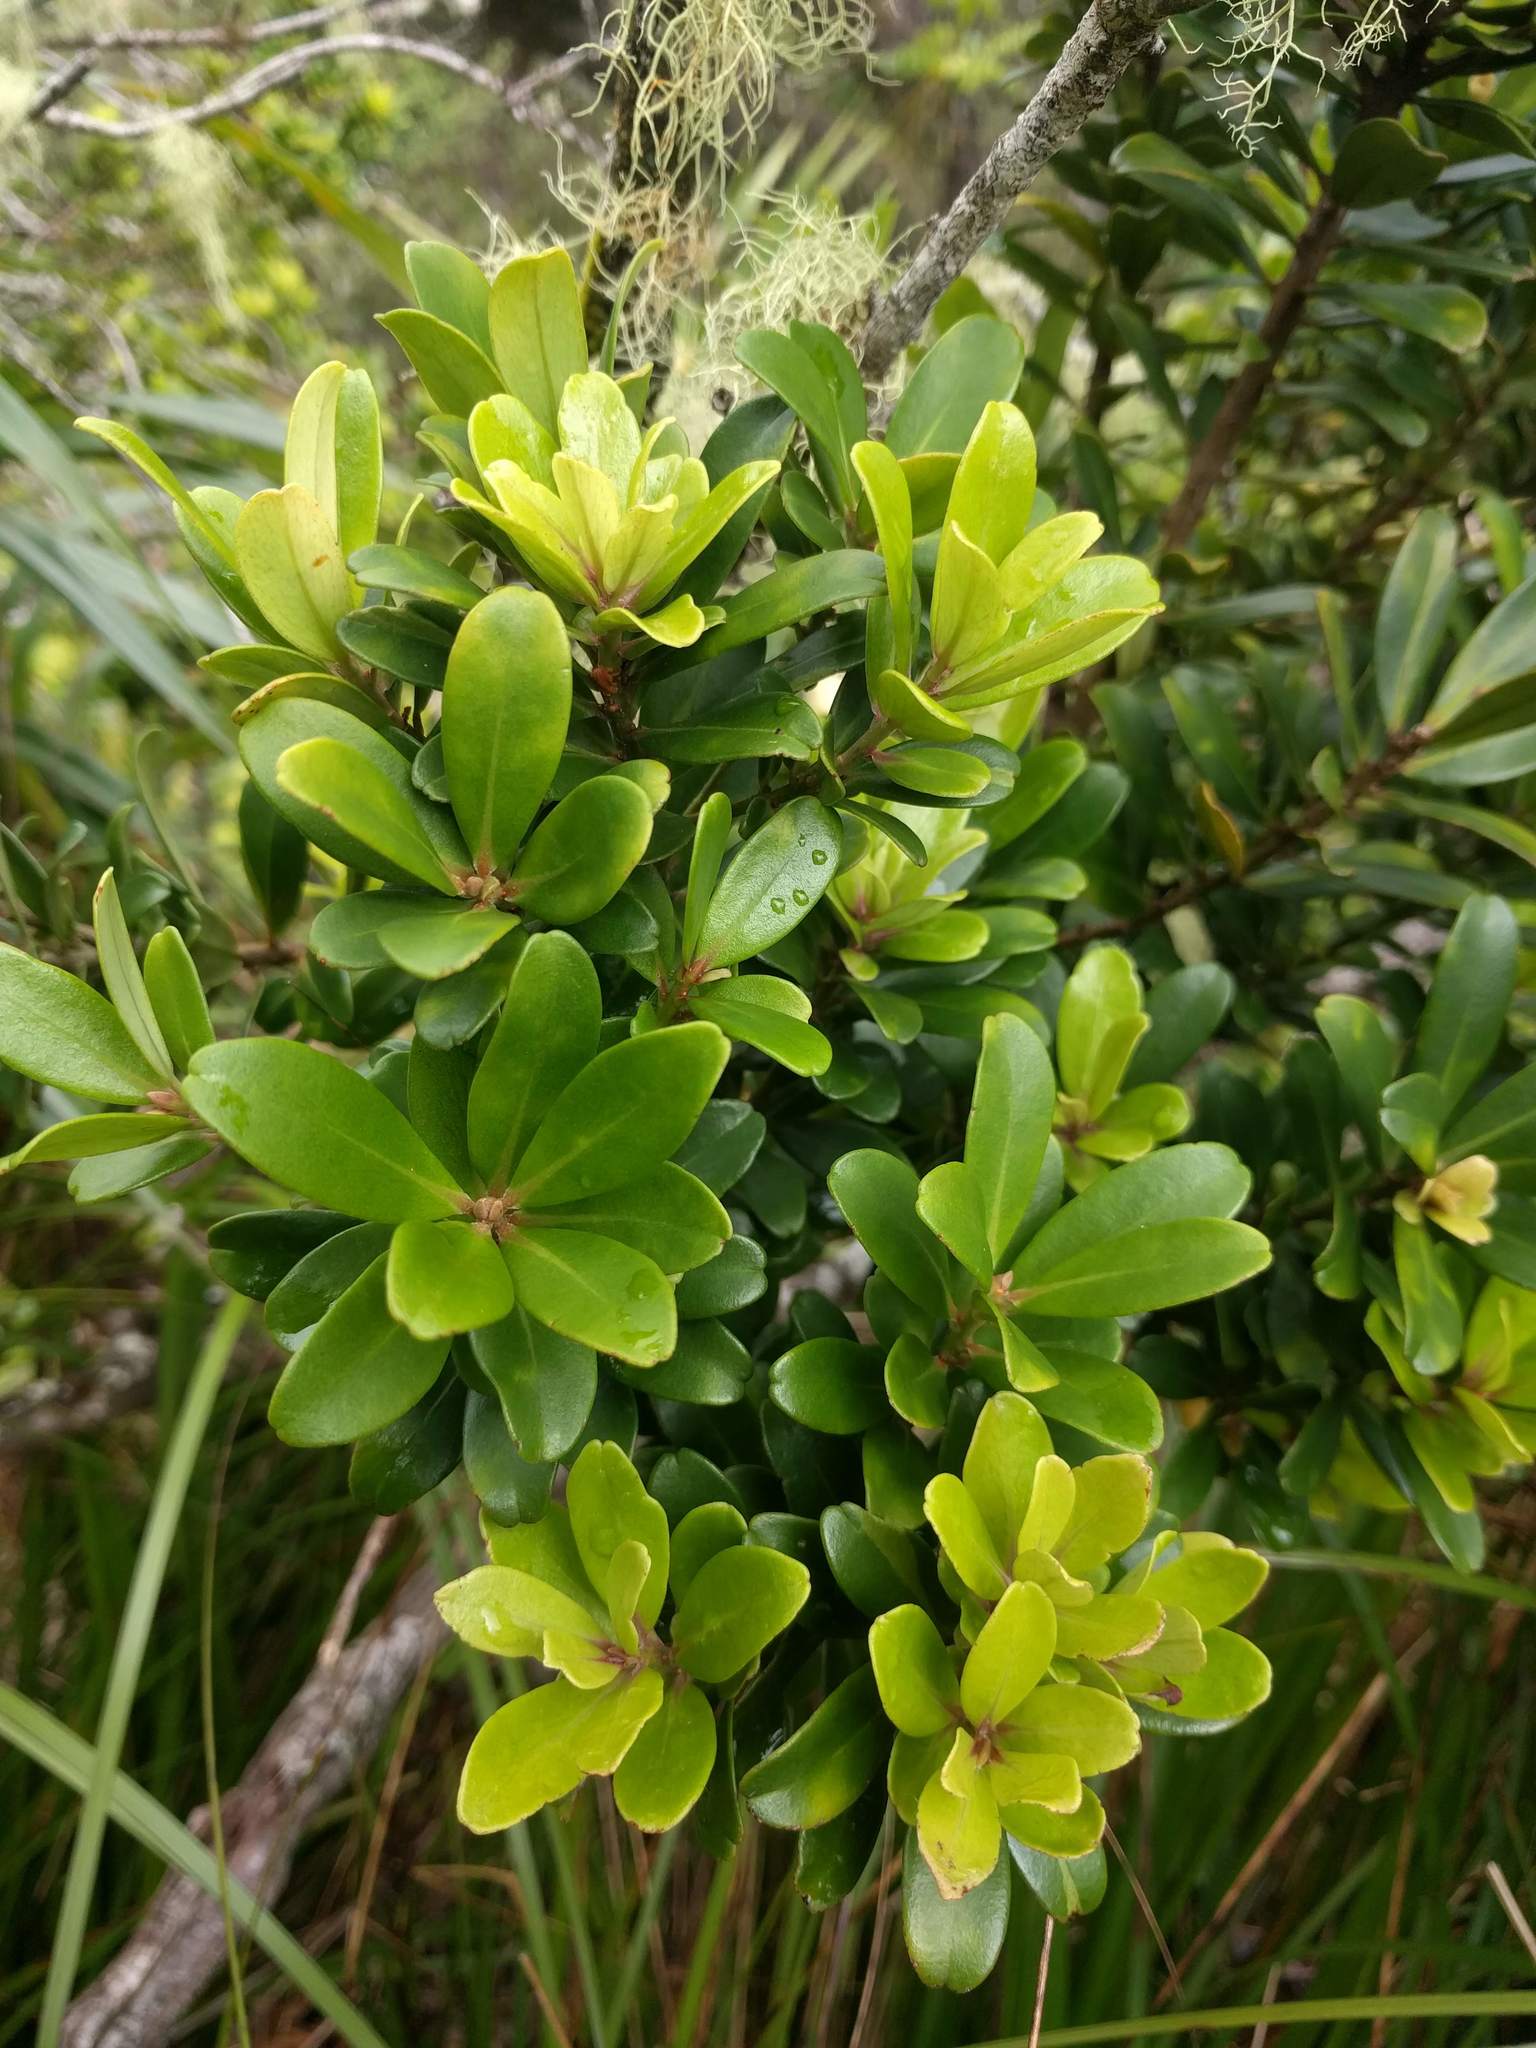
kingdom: Plantae
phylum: Tracheophyta
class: Magnoliopsida
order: Ericales
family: Primulaceae
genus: Myrsine
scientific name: Myrsine sandwicensis
